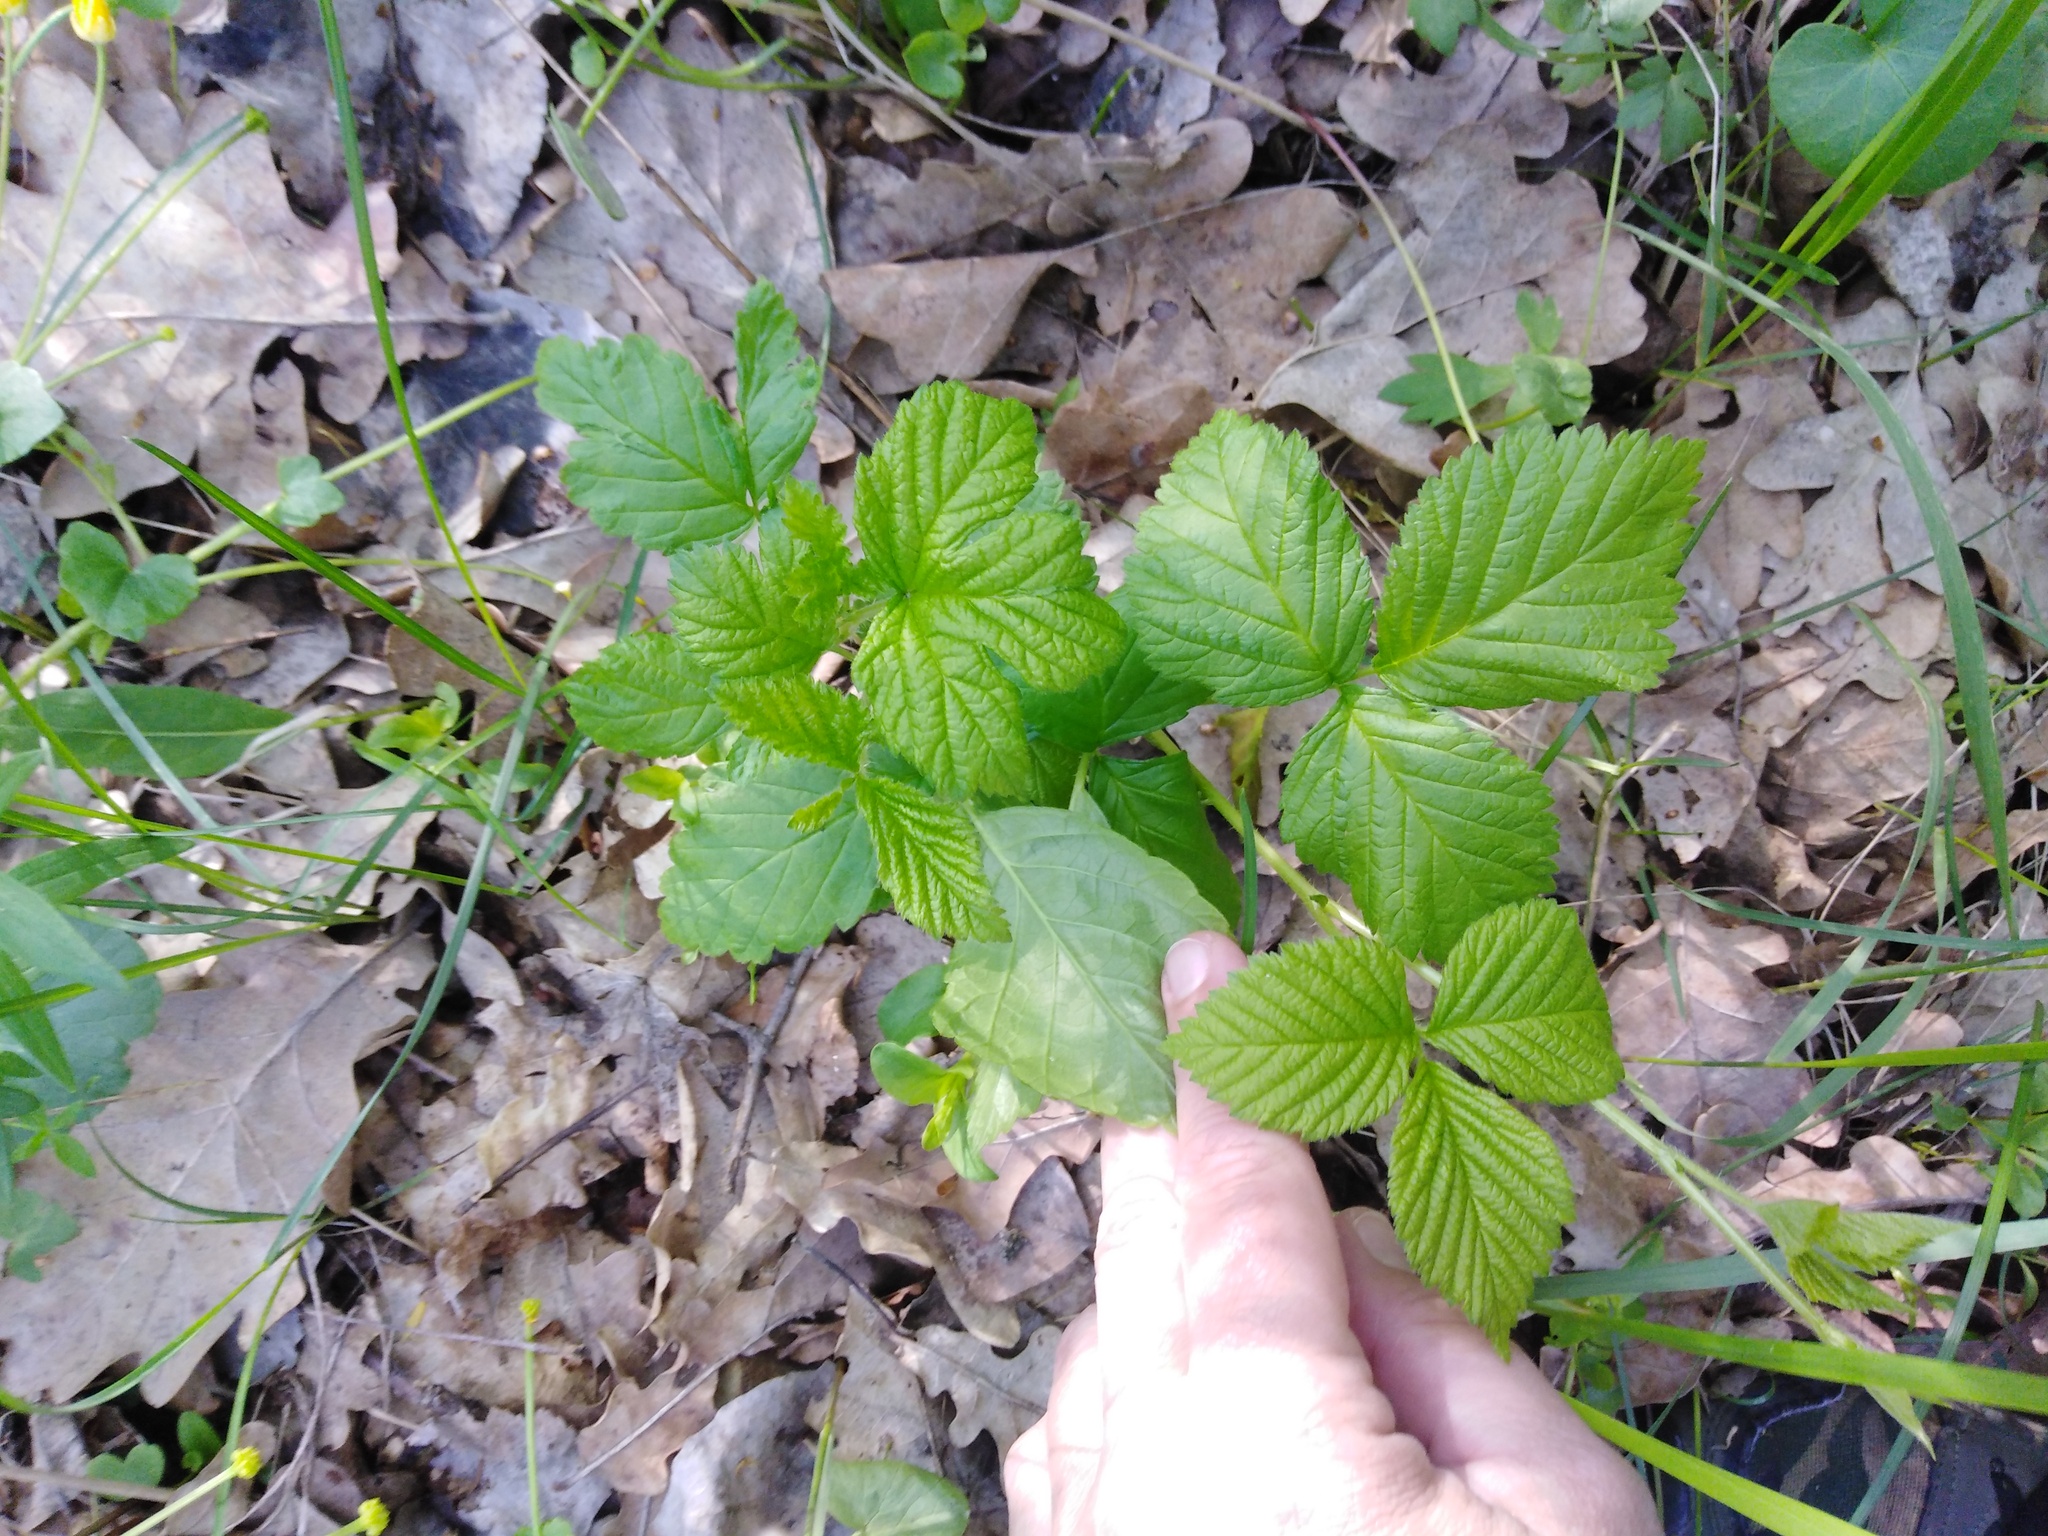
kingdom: Plantae
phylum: Tracheophyta
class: Magnoliopsida
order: Rosales
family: Rosaceae
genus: Rubus
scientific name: Rubus saxatilis
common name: Stone bramble
